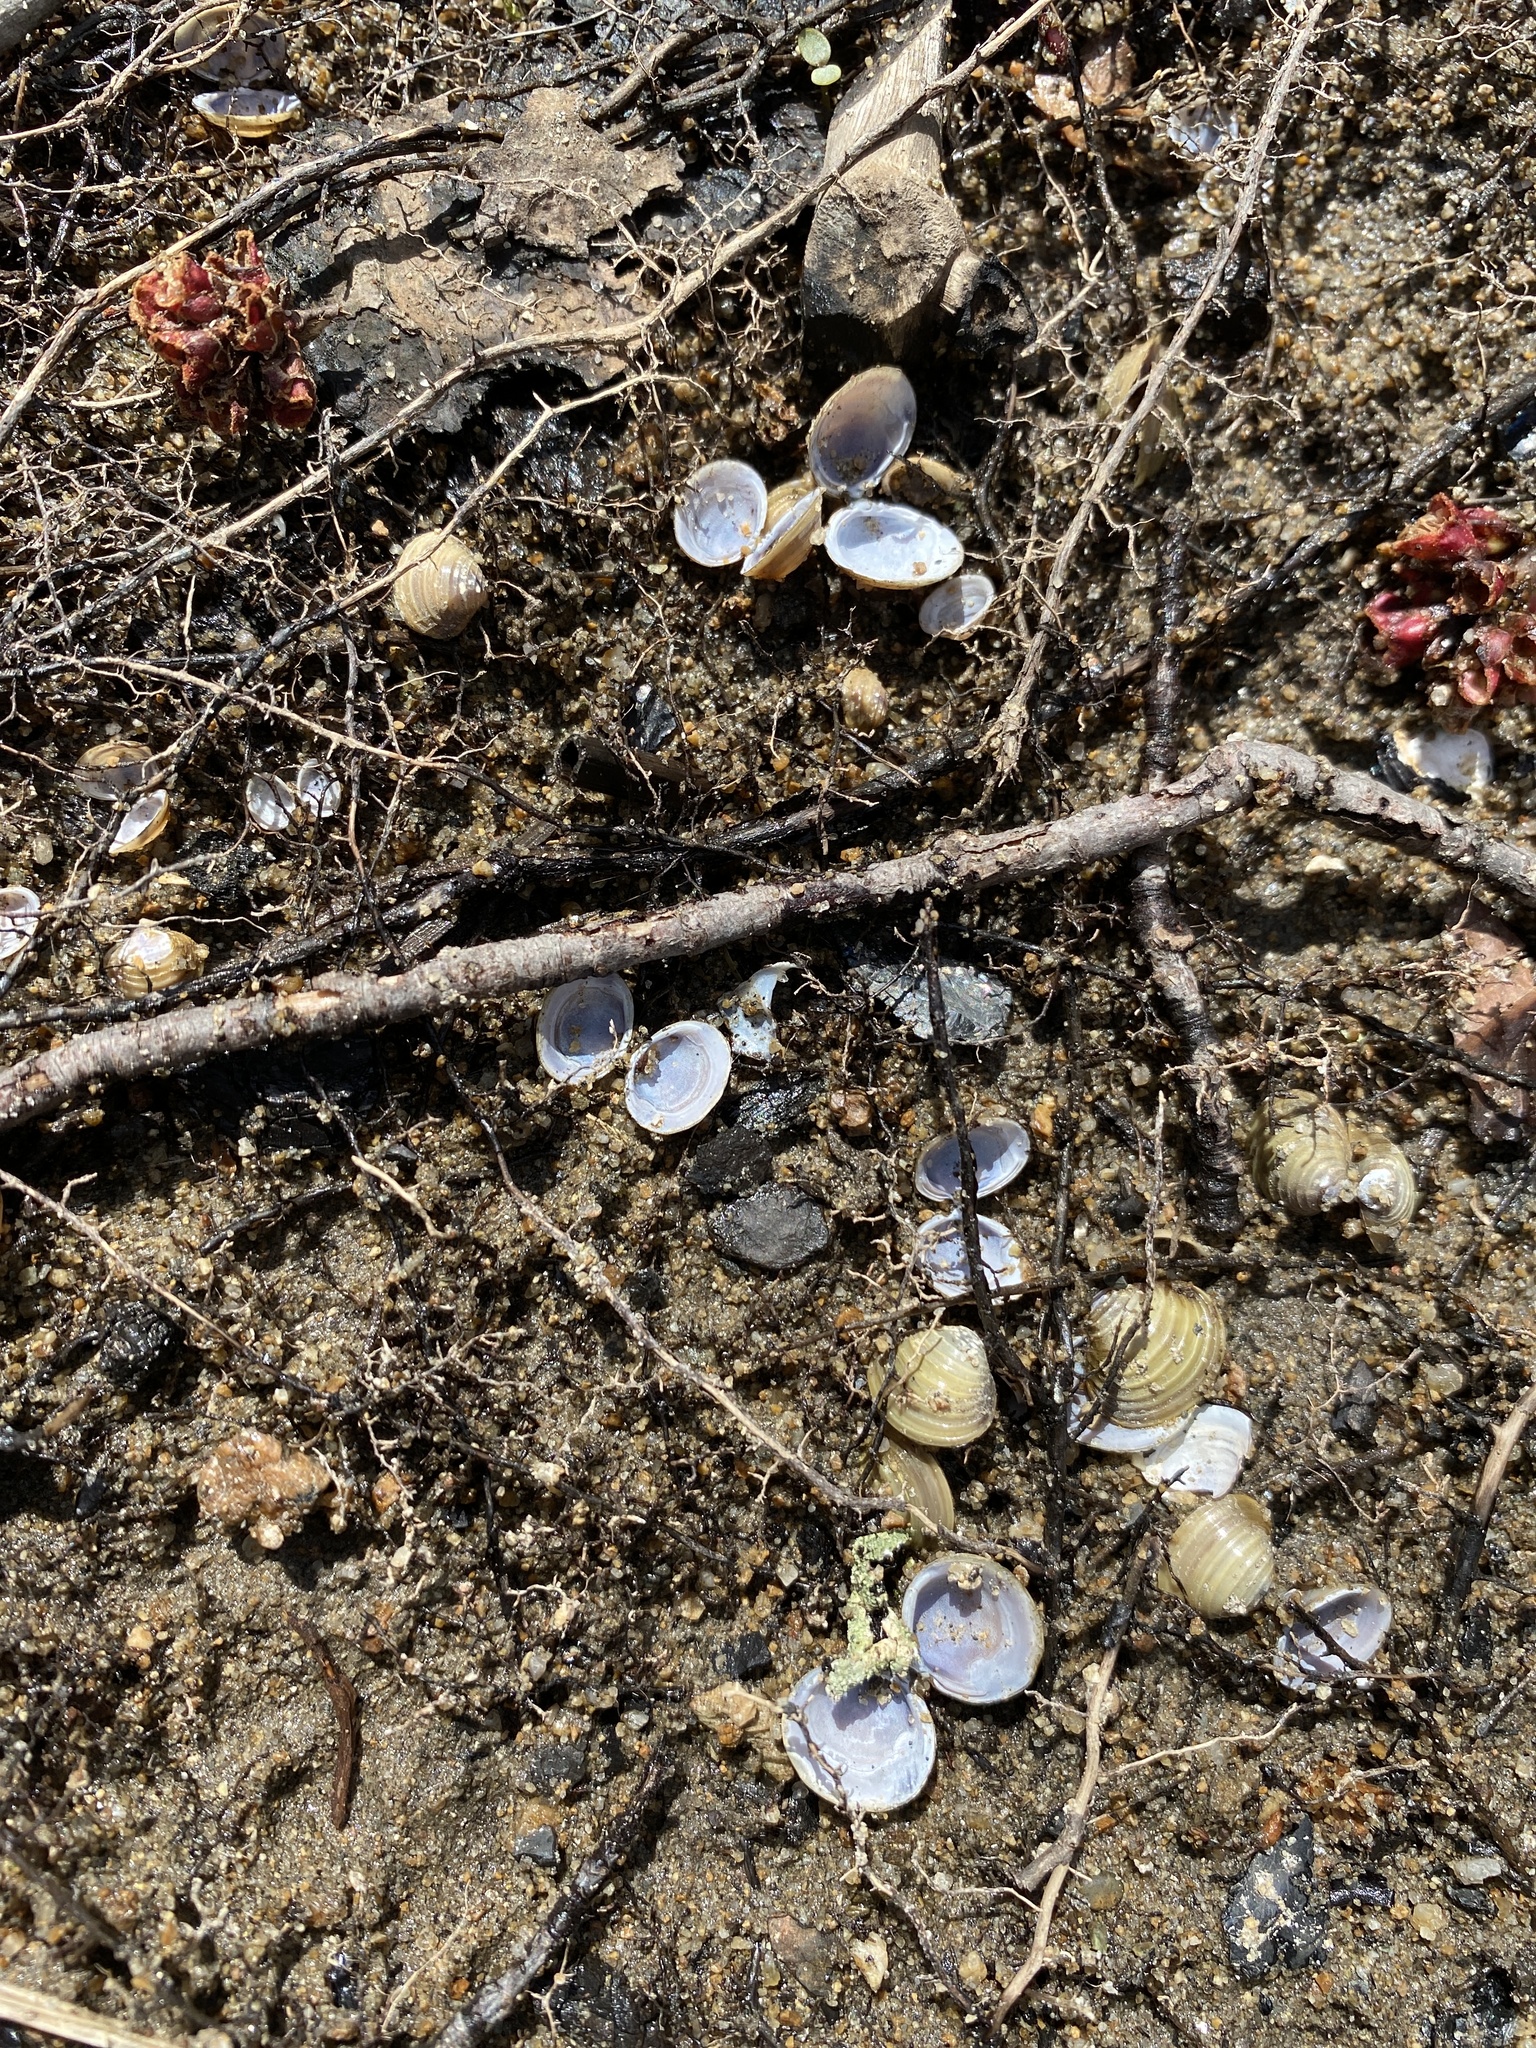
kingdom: Animalia
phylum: Mollusca
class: Bivalvia
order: Venerida
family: Cyrenidae
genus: Corbicula
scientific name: Corbicula fluminea
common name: Asian clam
